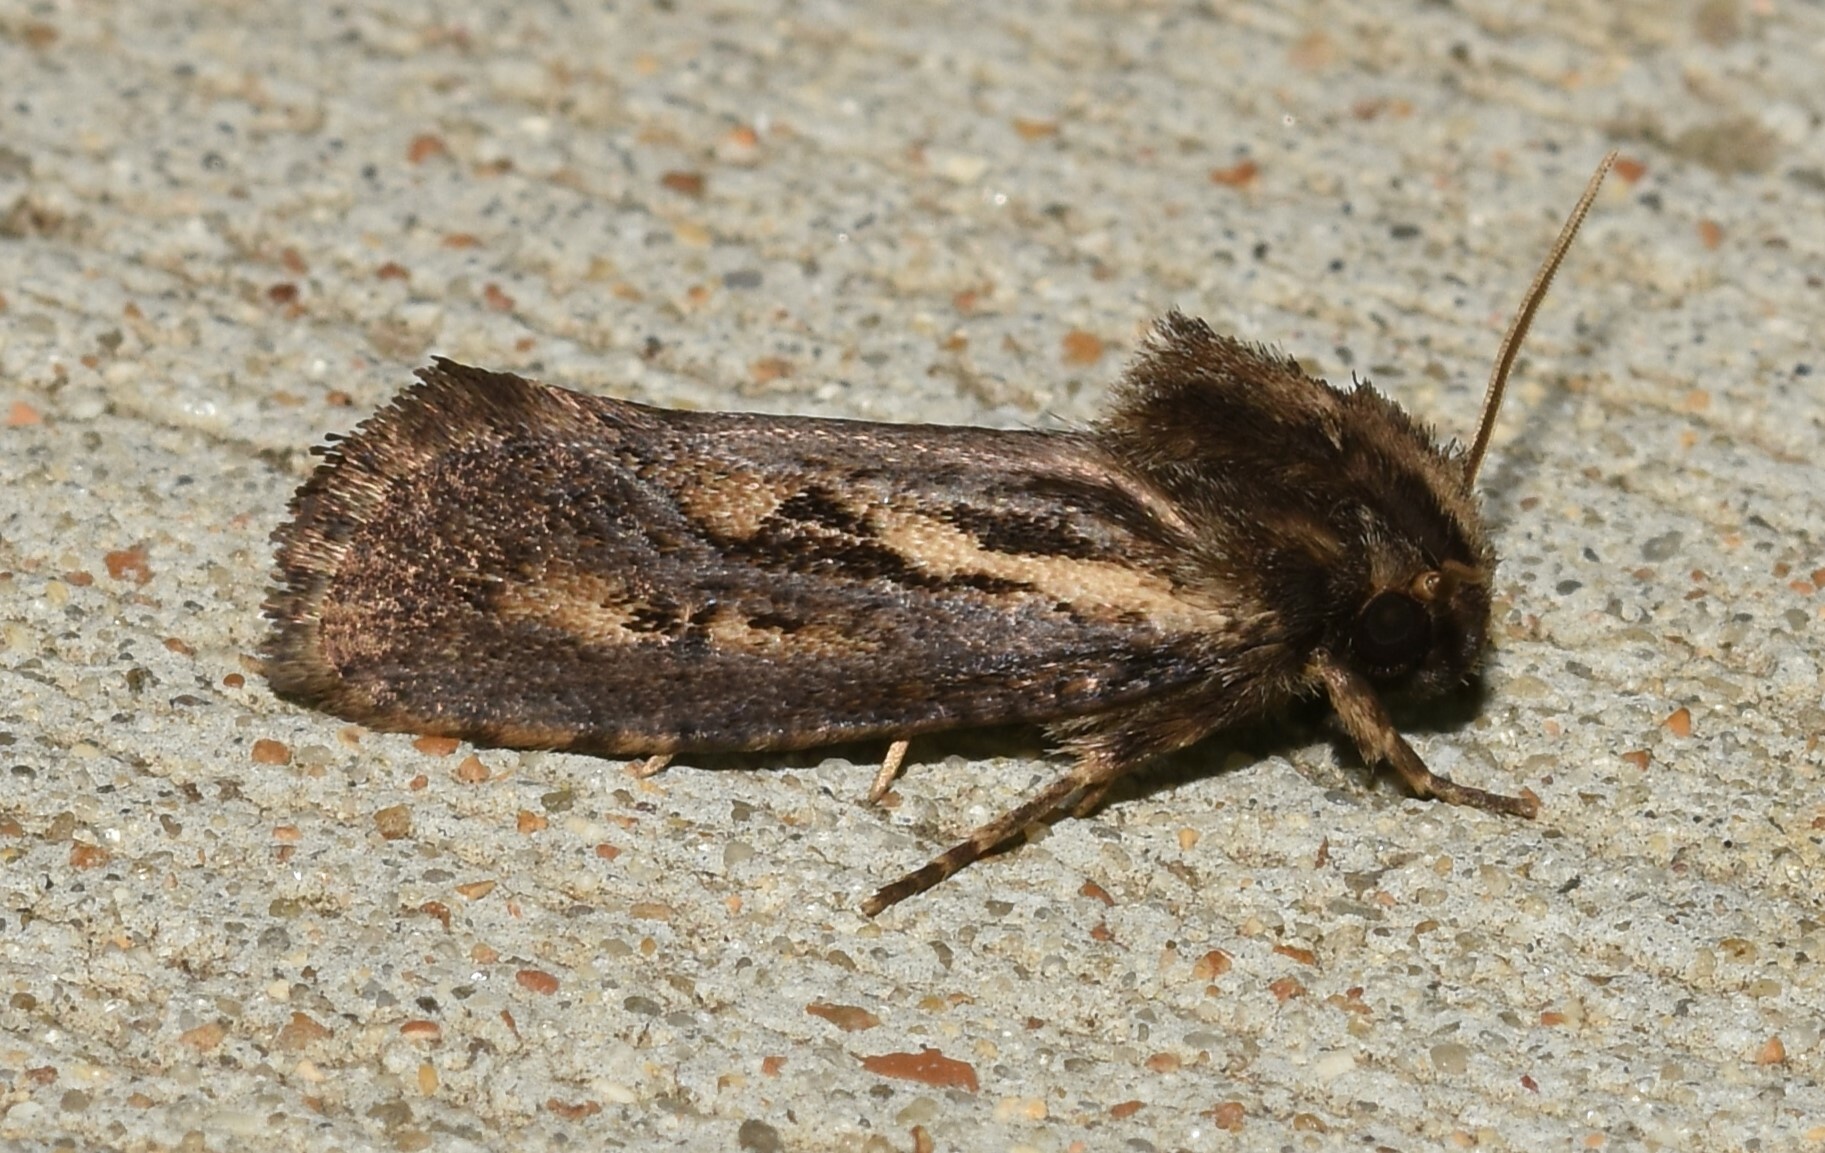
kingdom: Animalia
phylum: Arthropoda
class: Insecta
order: Lepidoptera
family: Tineidae
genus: Acrolophus
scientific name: Acrolophus popeanella
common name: Clemens' grass tubeworm moth
